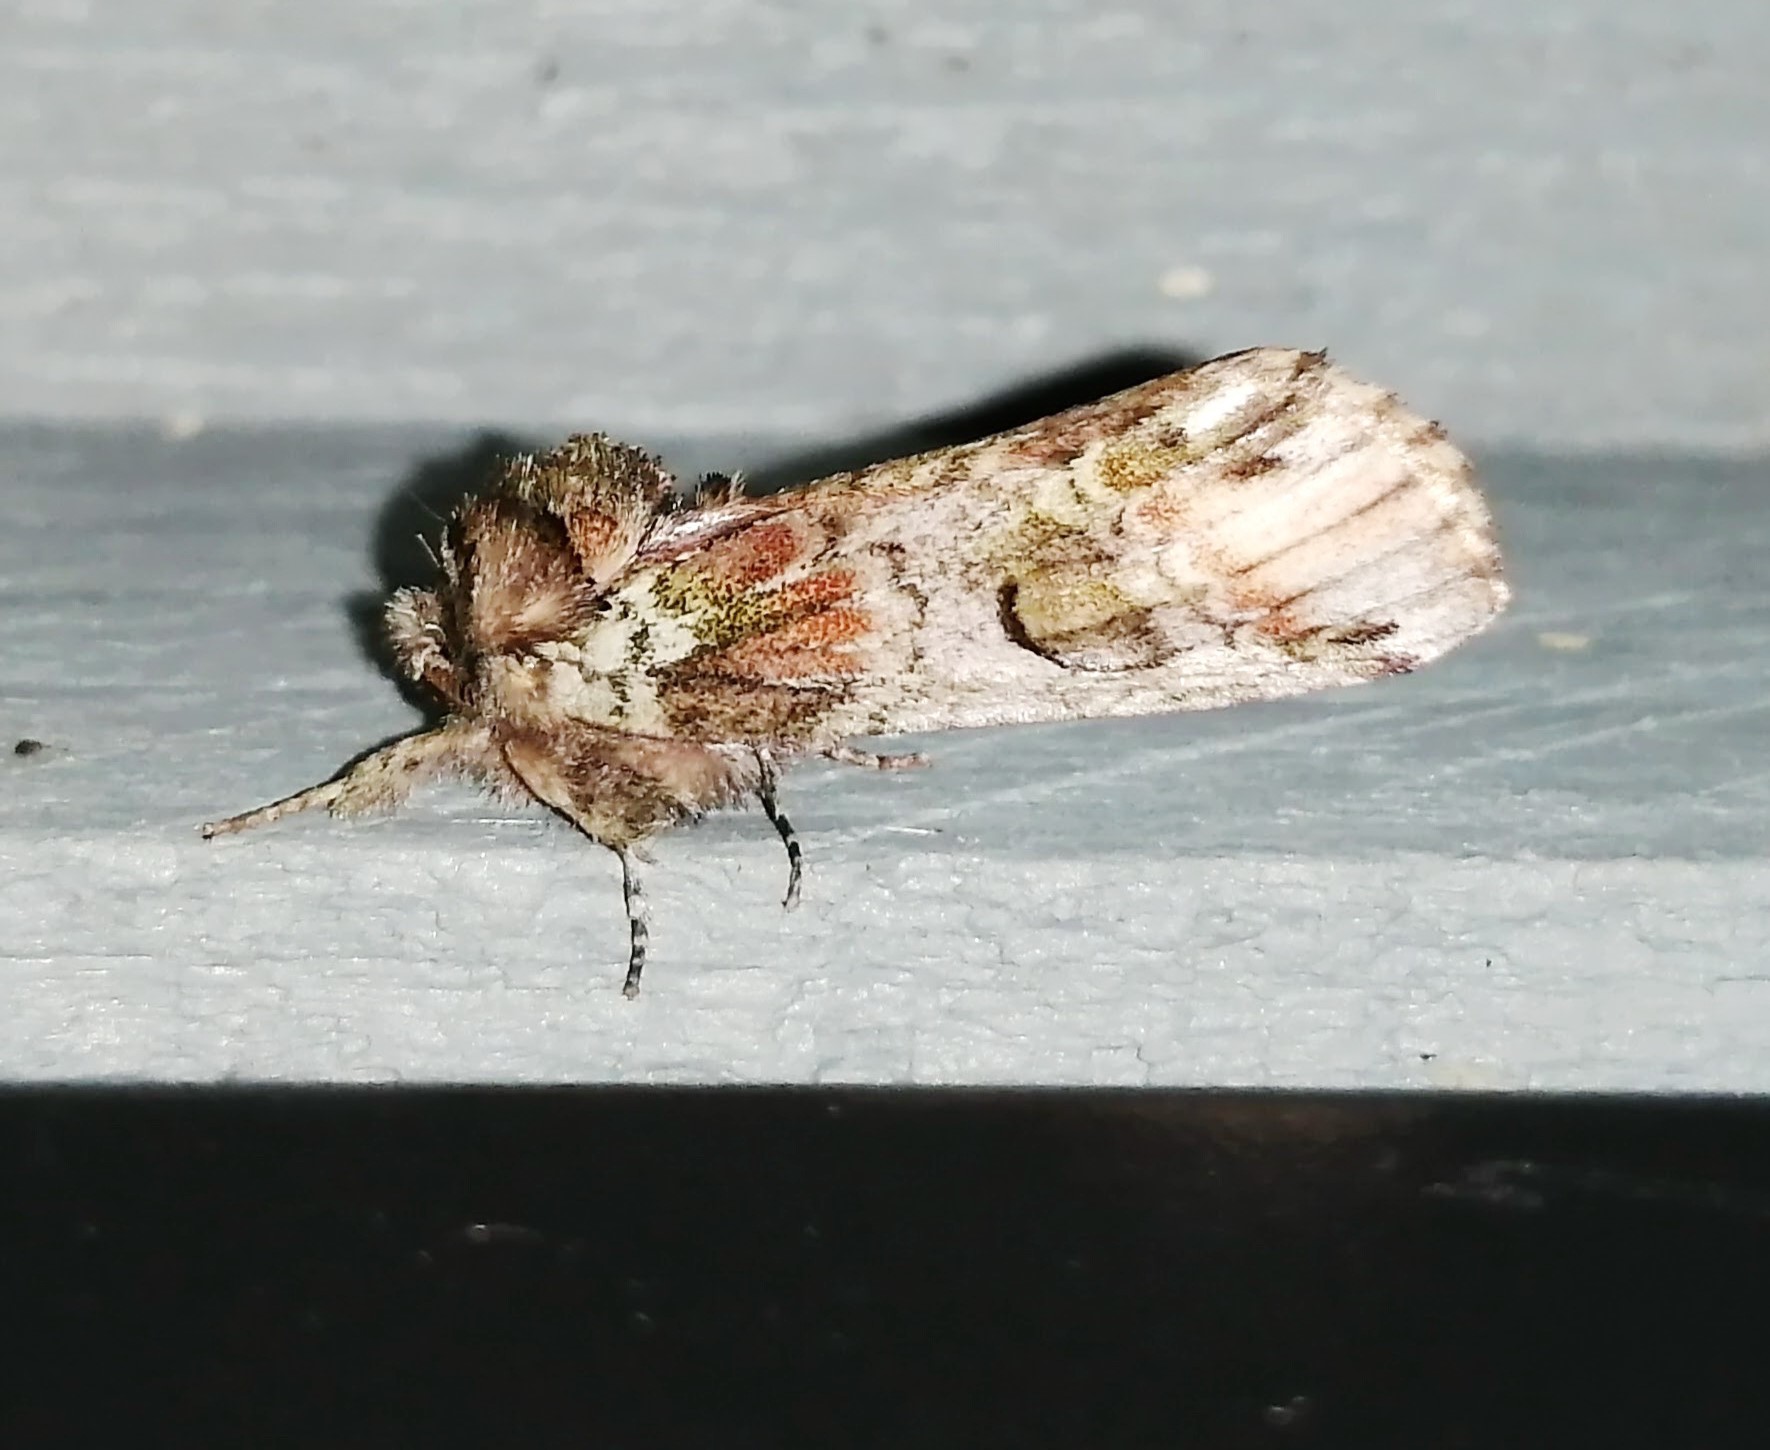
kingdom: Animalia
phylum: Arthropoda
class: Insecta
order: Lepidoptera
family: Notodontidae
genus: Schizura
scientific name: Schizura
